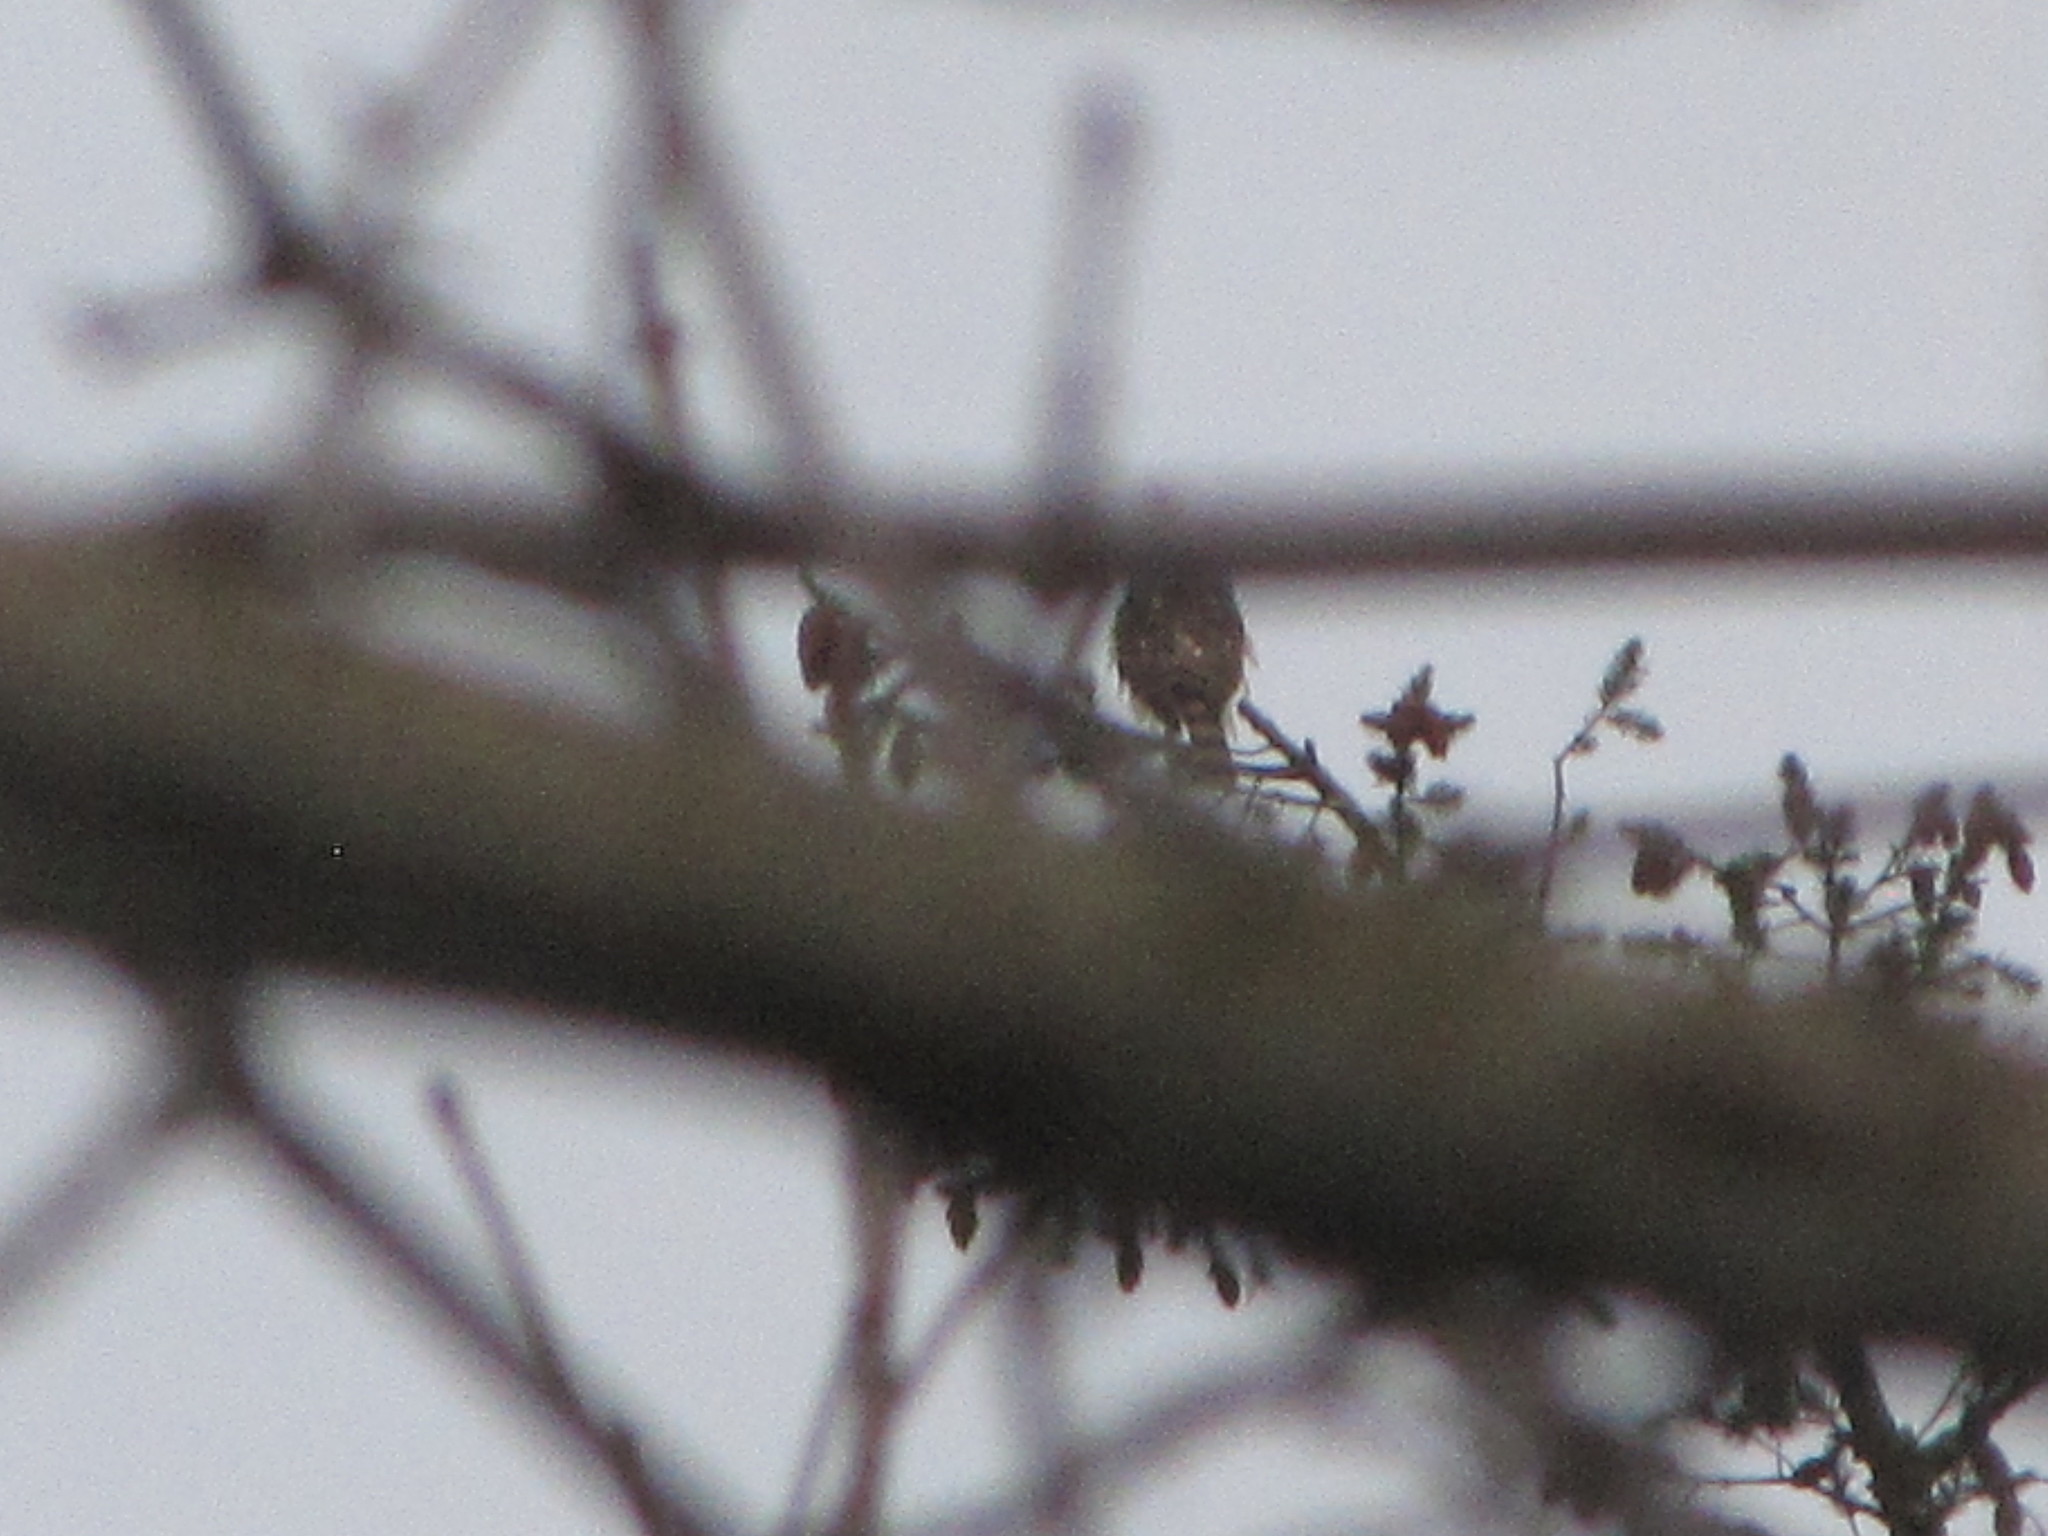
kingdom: Animalia
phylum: Chordata
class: Aves
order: Accipitriformes
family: Accipitridae
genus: Accipiter
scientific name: Accipiter
